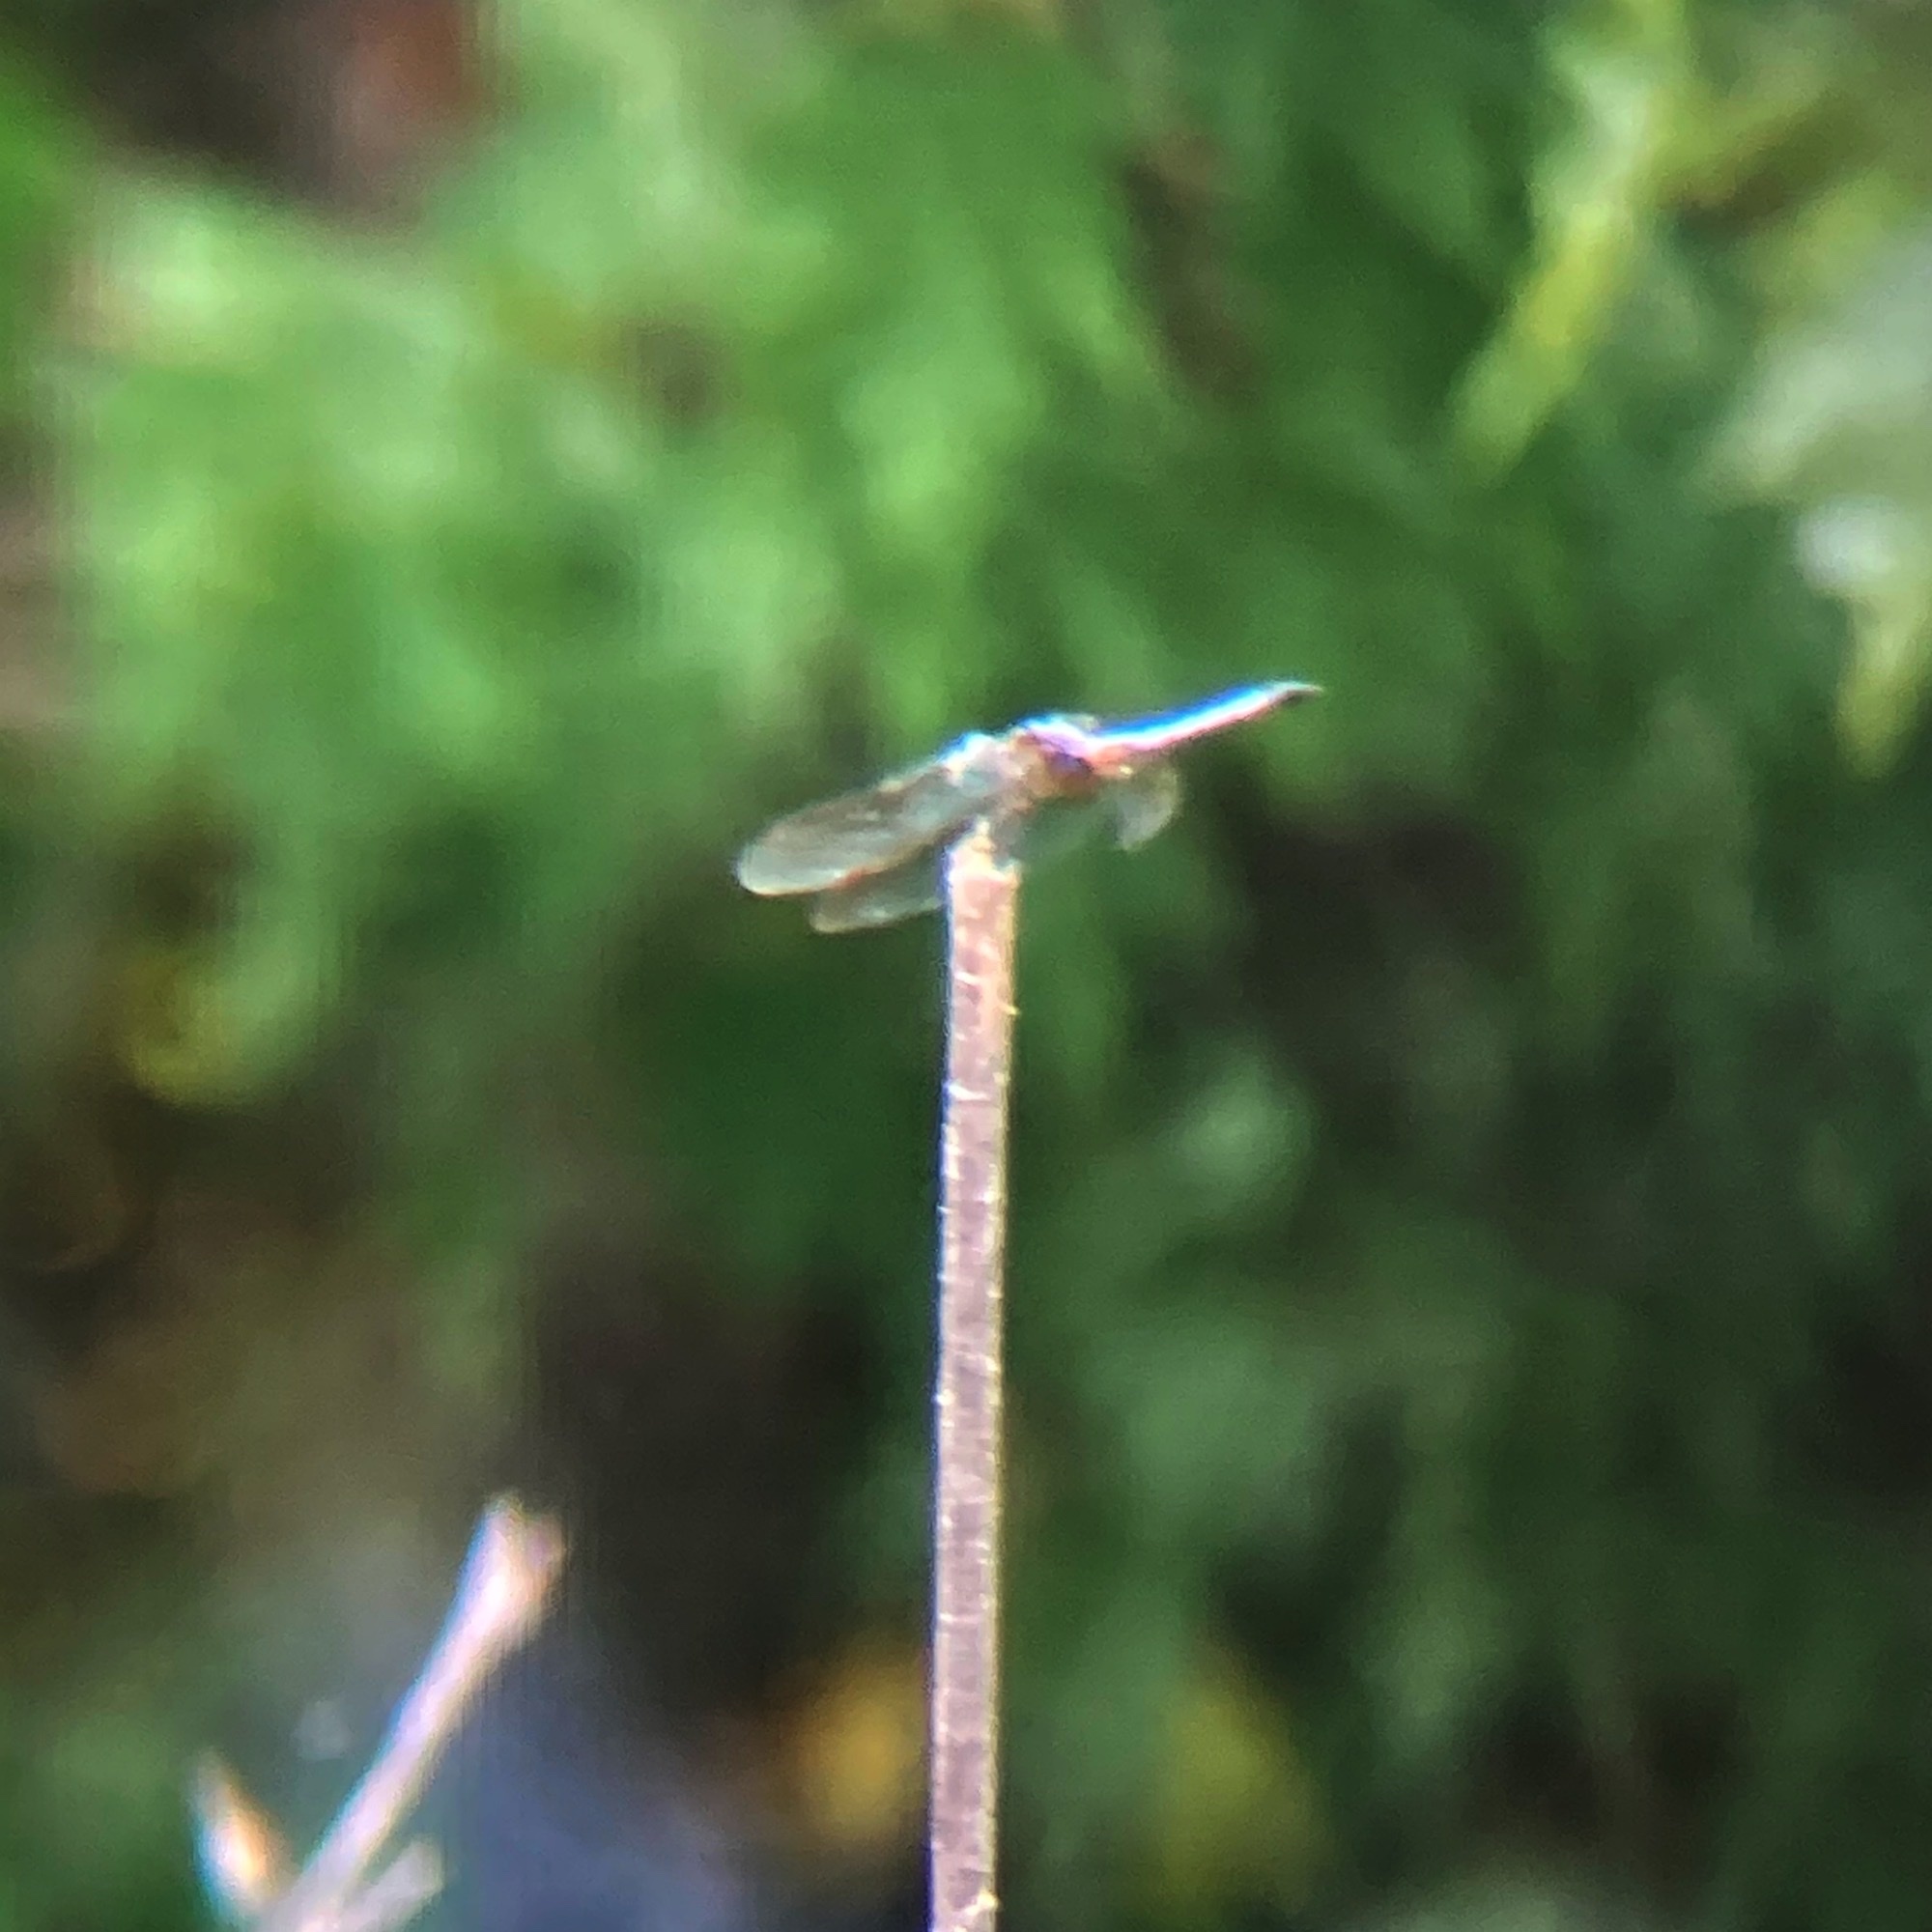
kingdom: Animalia
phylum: Arthropoda
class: Insecta
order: Odonata
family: Libellulidae
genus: Pachydiplax
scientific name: Pachydiplax longipennis
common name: Blue dasher
